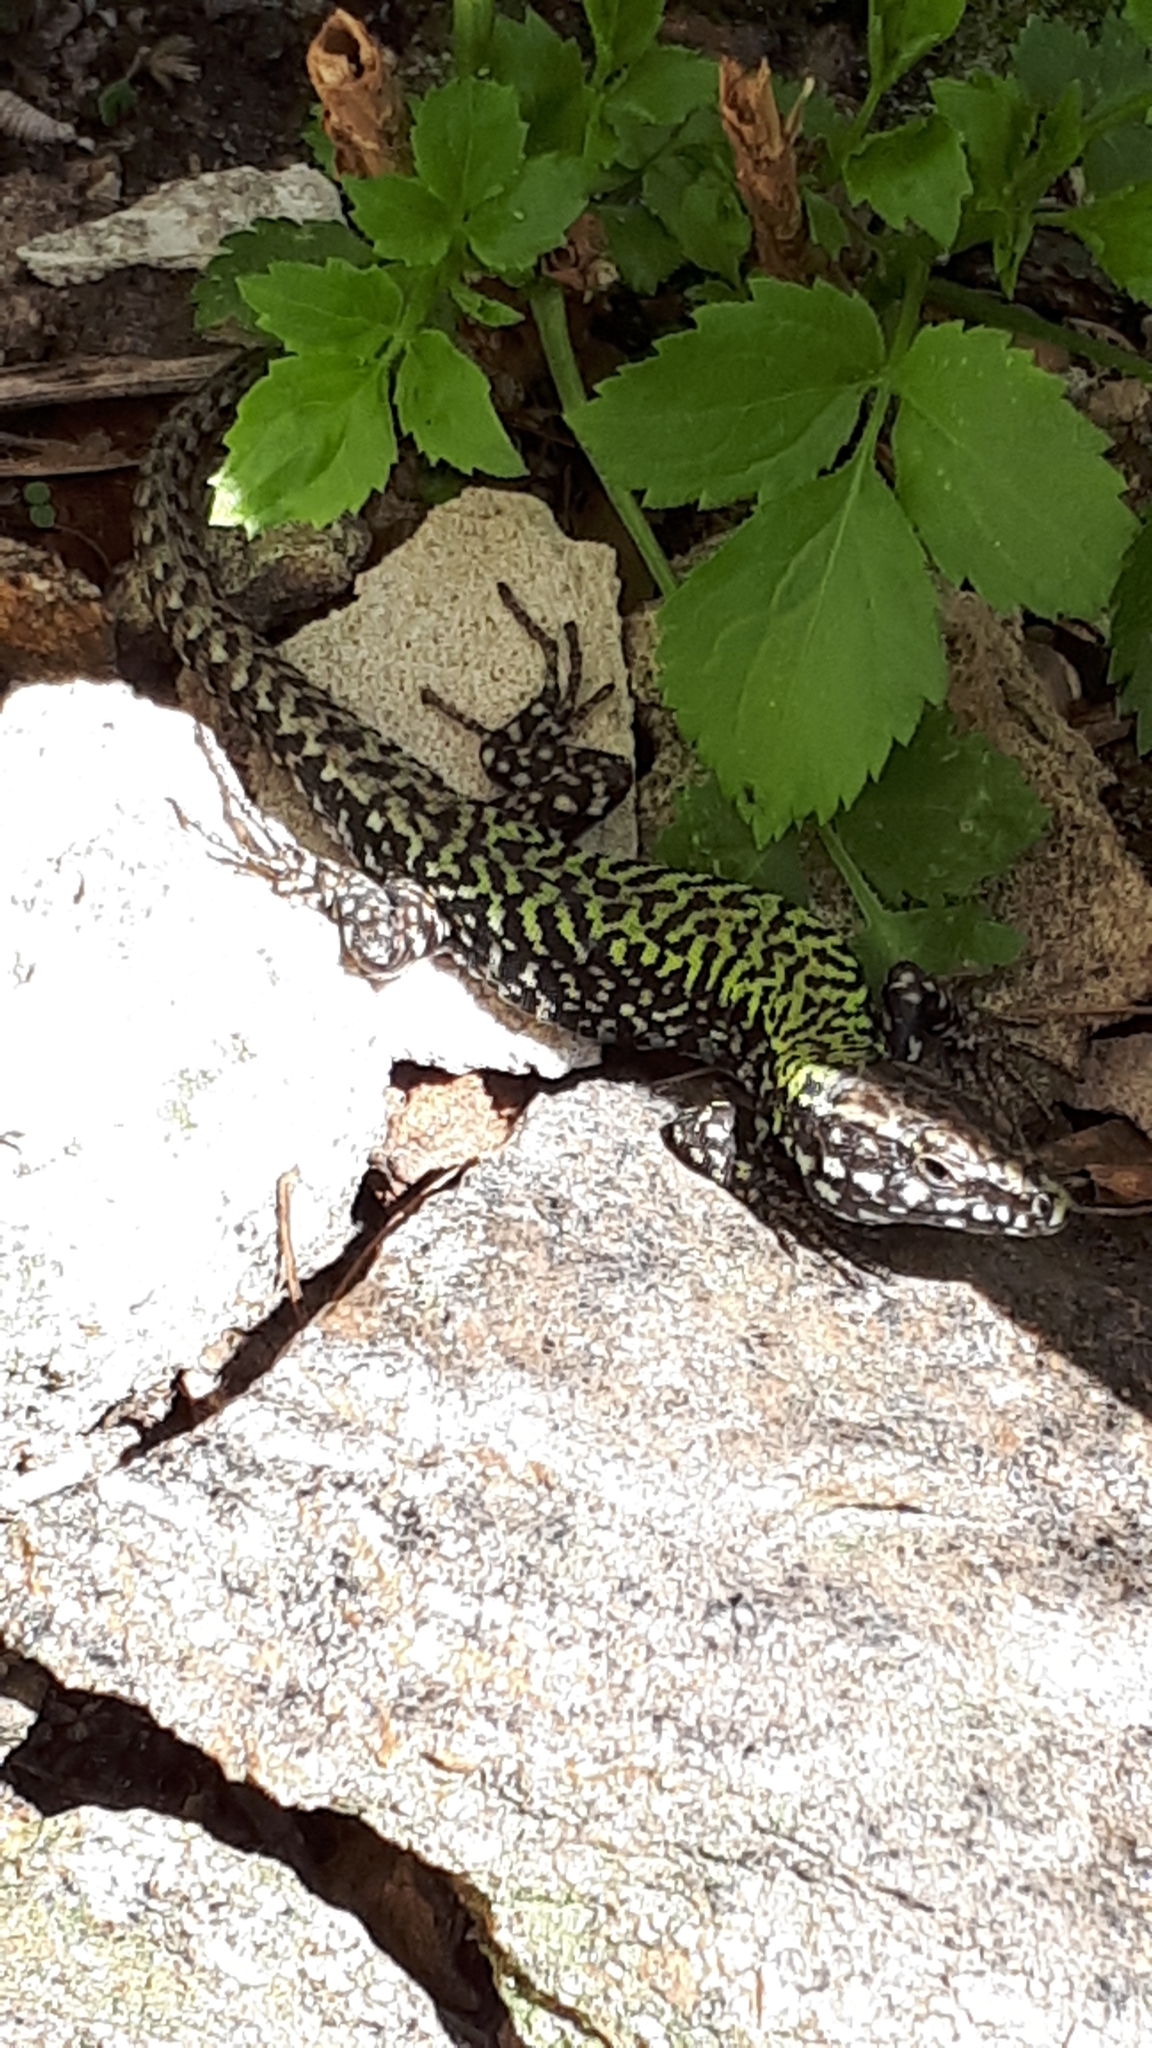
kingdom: Animalia
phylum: Chordata
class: Squamata
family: Lacertidae
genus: Podarcis
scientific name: Podarcis muralis
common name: Common wall lizard
